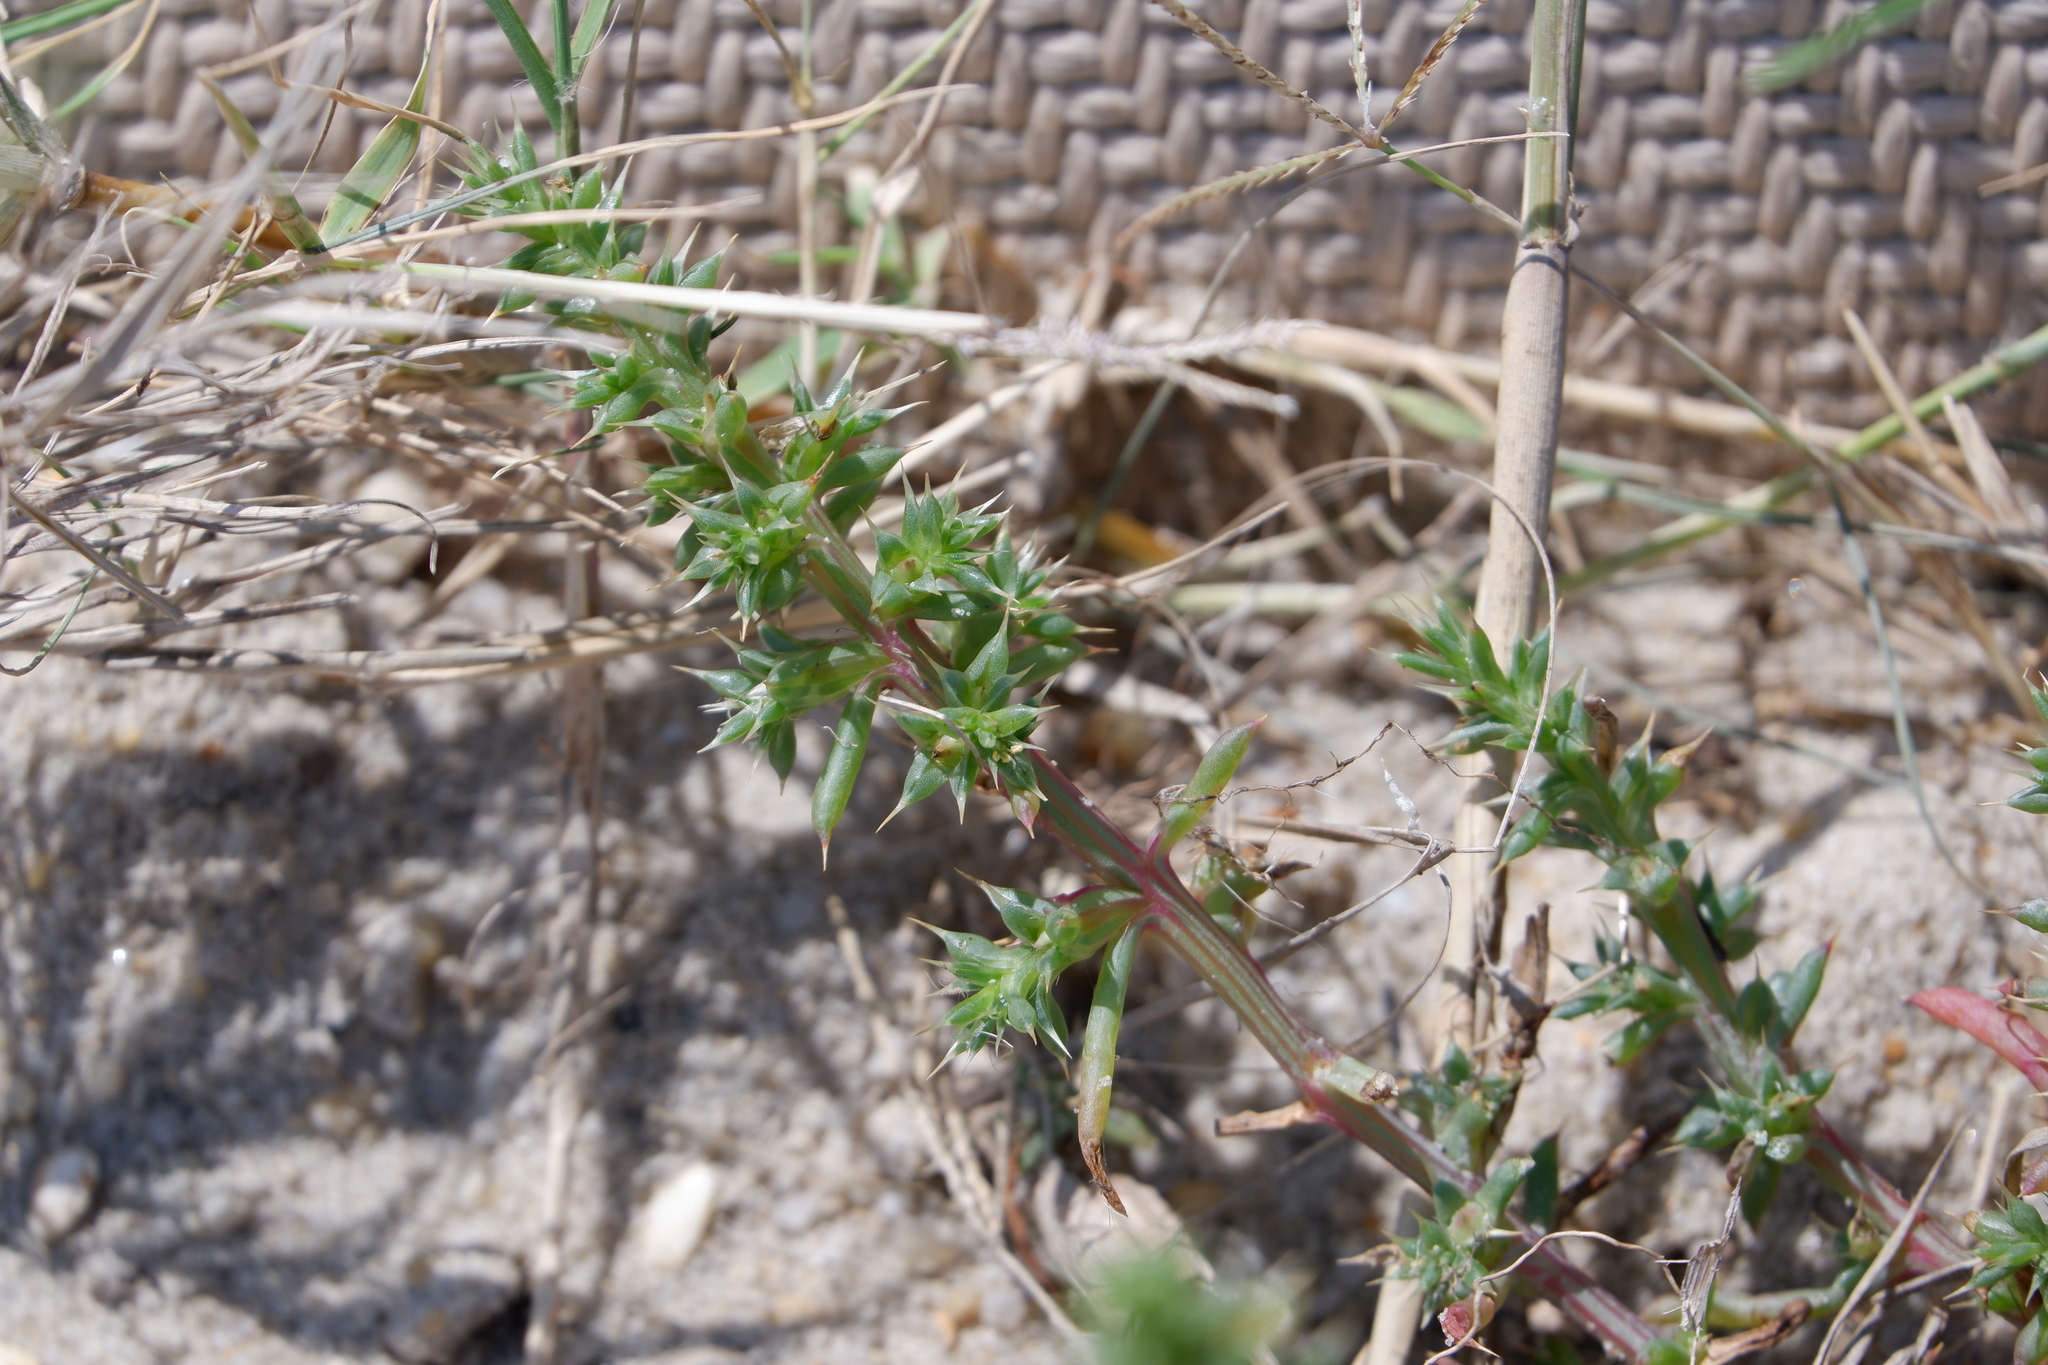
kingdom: Plantae
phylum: Tracheophyta
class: Magnoliopsida
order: Caryophyllales
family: Amaranthaceae
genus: Salsola
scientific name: Salsola kali
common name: Saltwort
